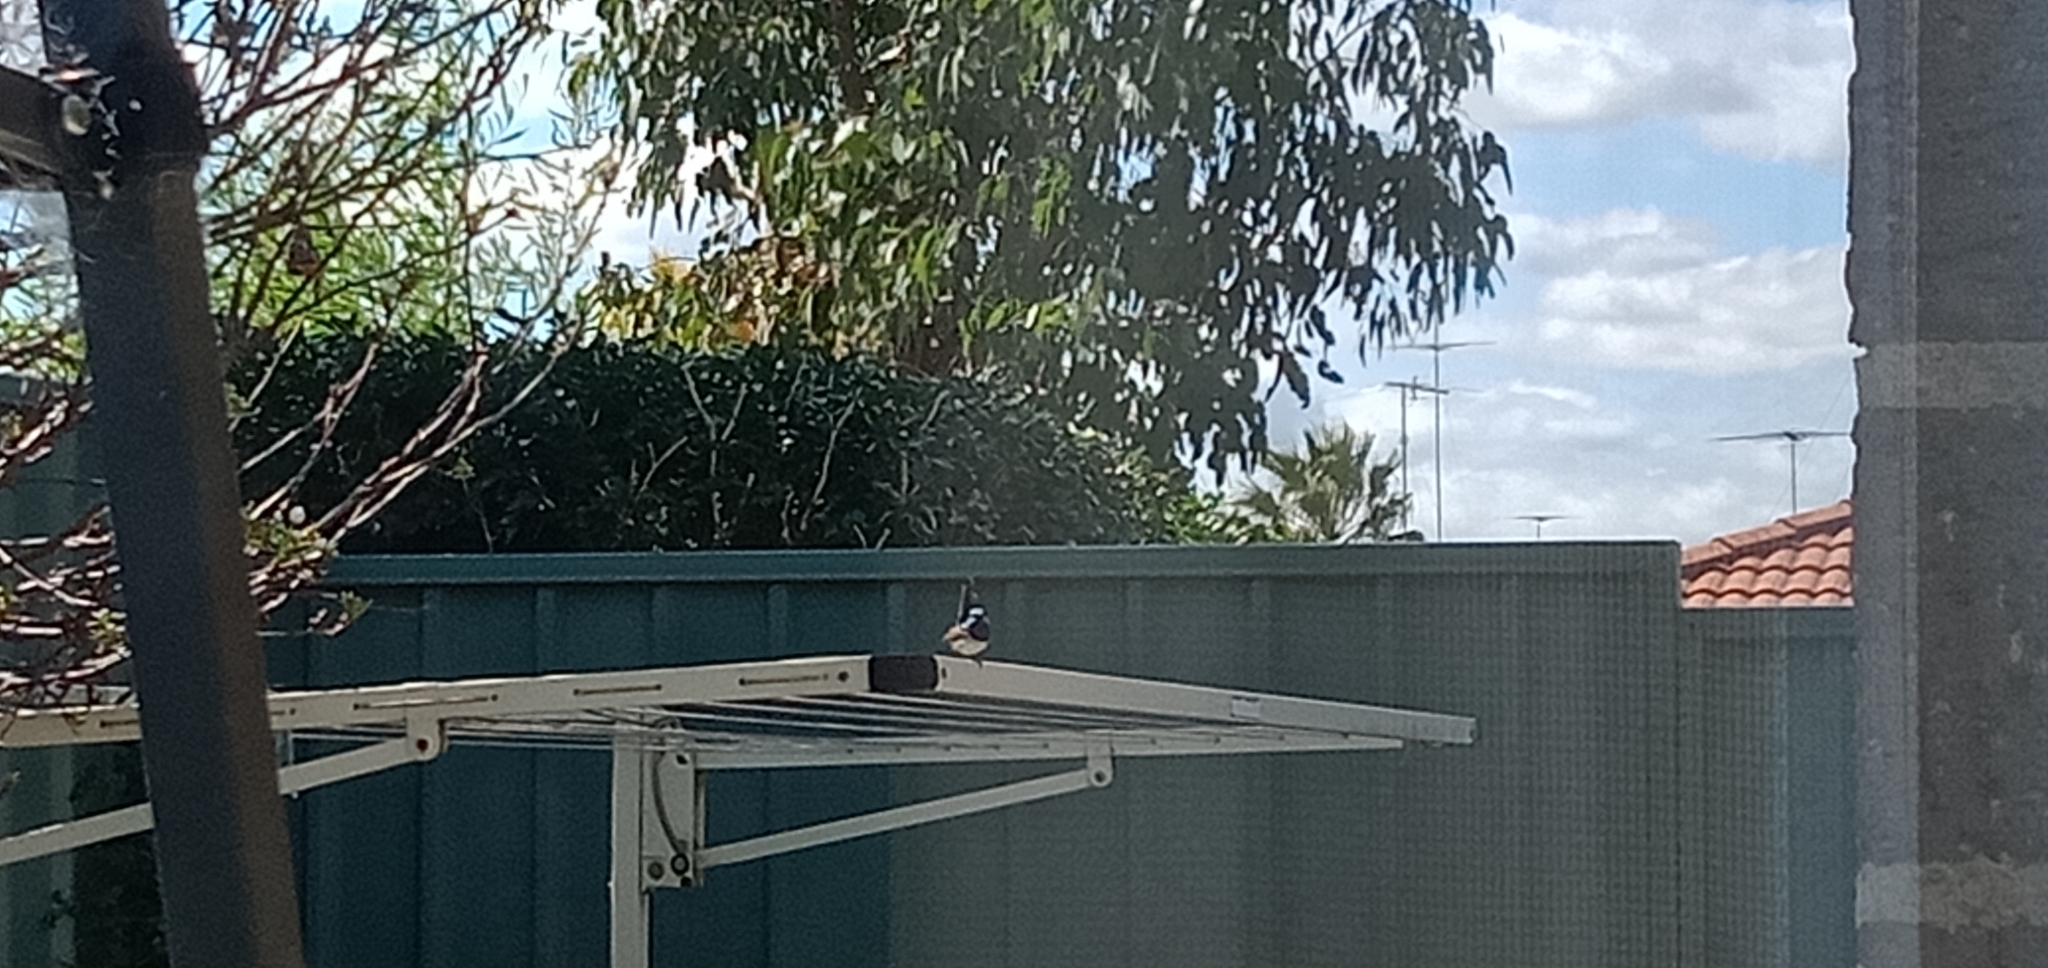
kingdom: Animalia
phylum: Chordata
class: Aves
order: Passeriformes
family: Maluridae
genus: Malurus
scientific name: Malurus cyaneus
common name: Superb fairywren
